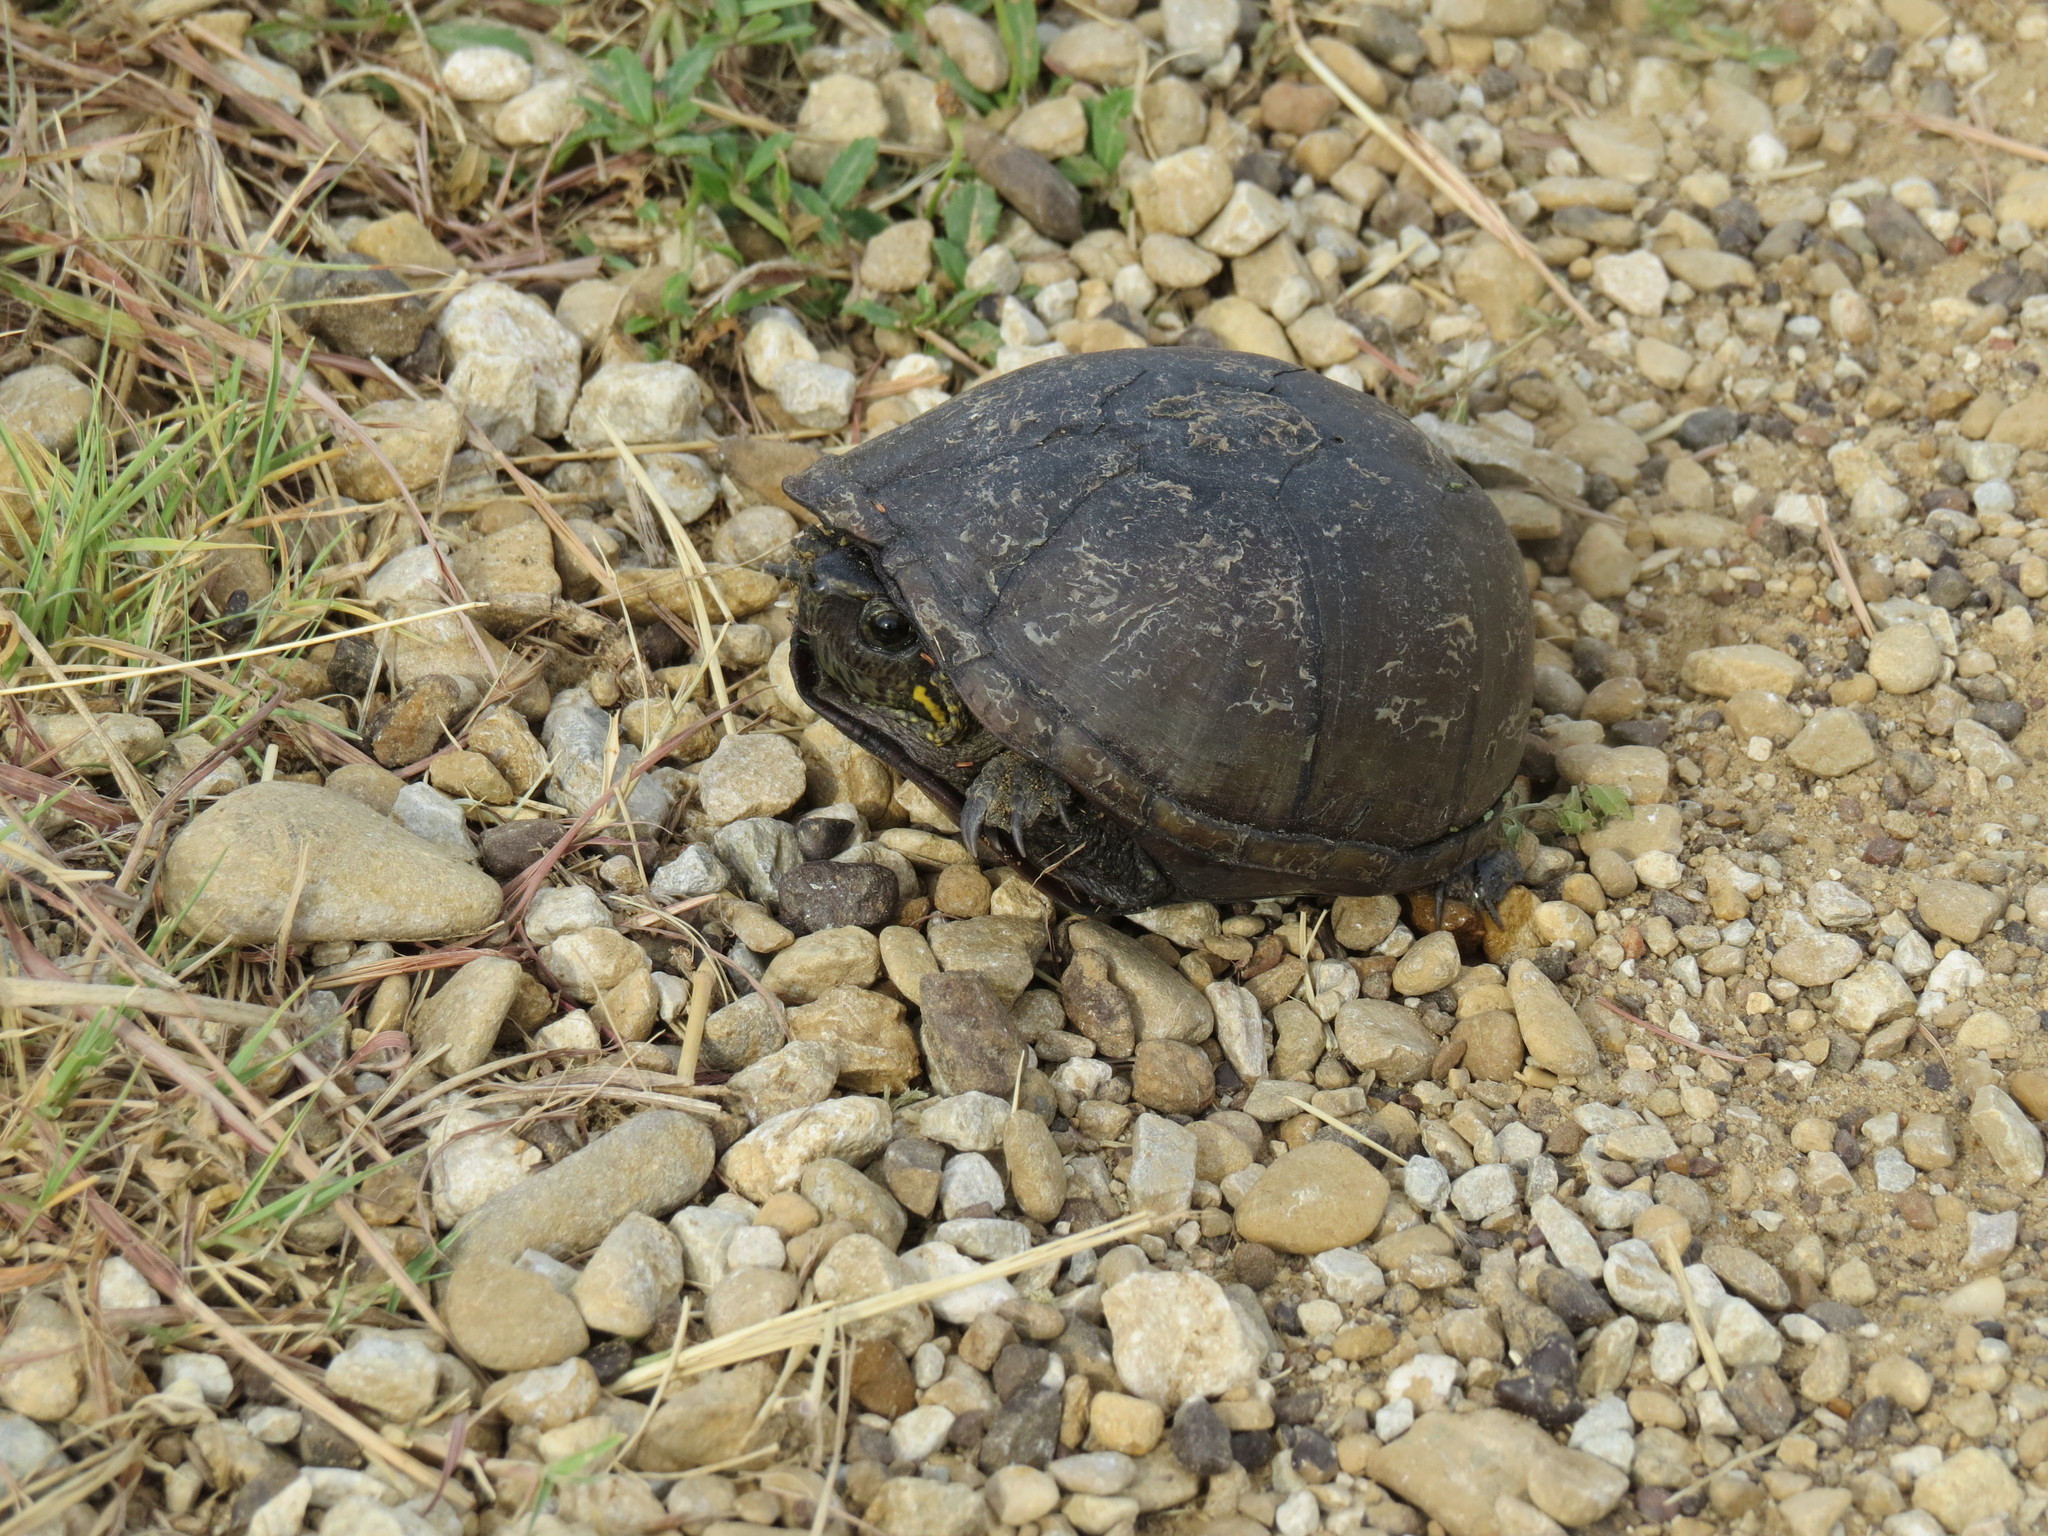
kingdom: Animalia
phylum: Chordata
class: Testudines
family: Kinosternidae
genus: Kinosternon
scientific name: Kinosternon subrubrum
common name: Eastern mud turtle
